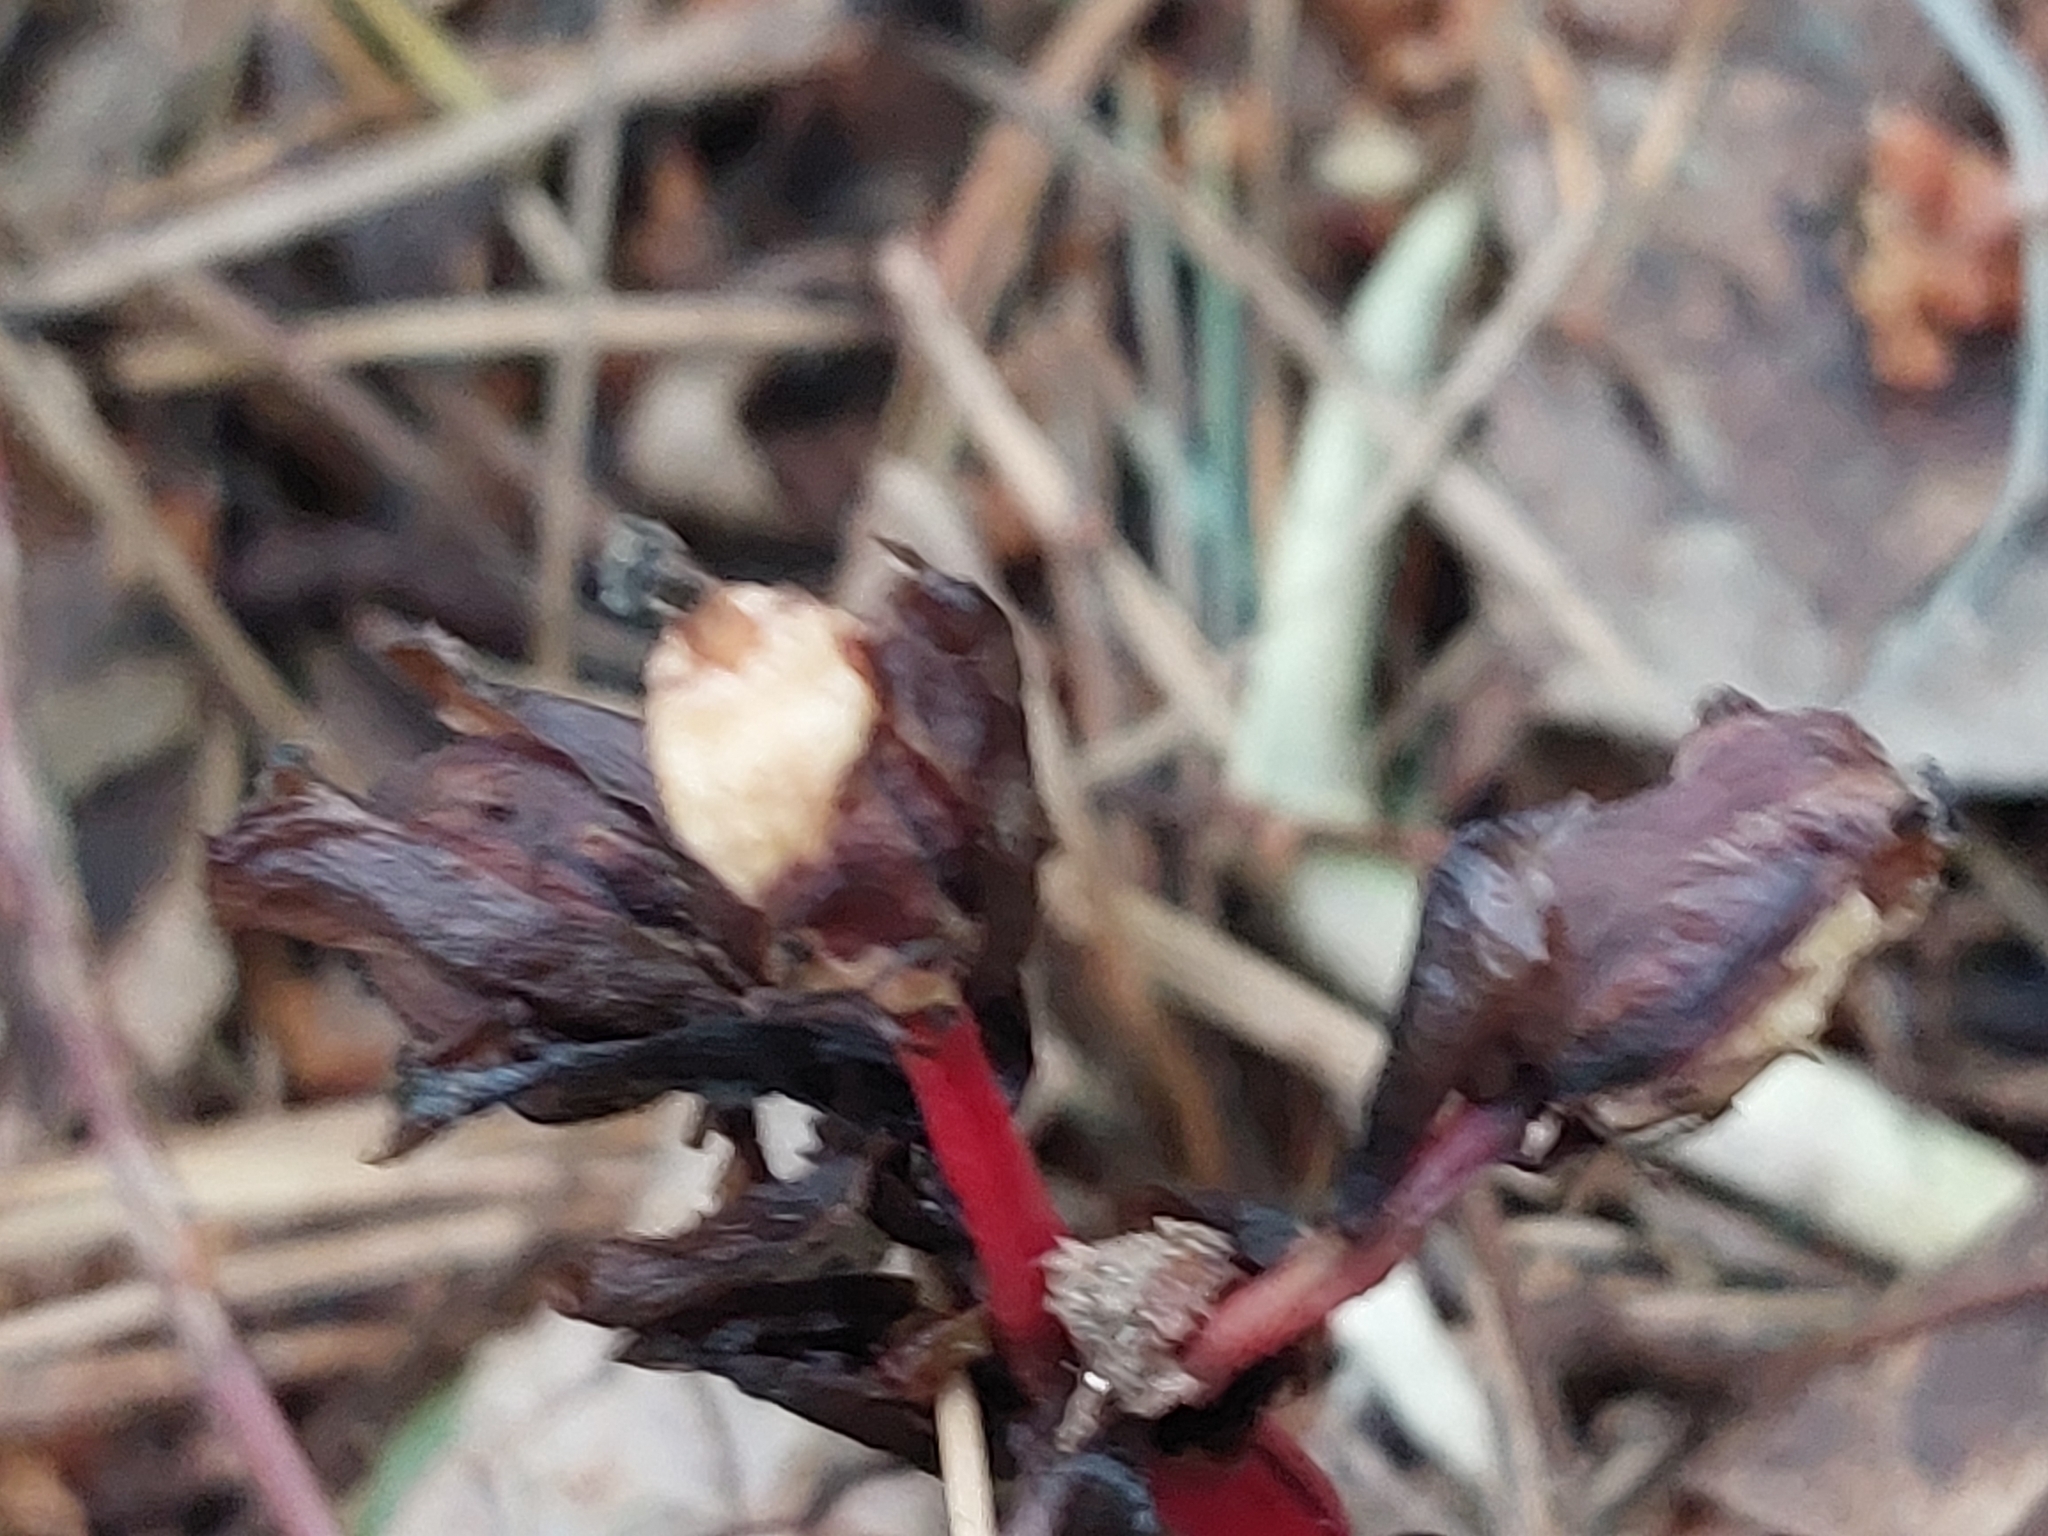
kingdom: Plantae
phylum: Tracheophyta
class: Magnoliopsida
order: Ericales
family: Ericaceae
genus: Hypopitys
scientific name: Hypopitys monotropa
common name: Yellow bird's-nest
